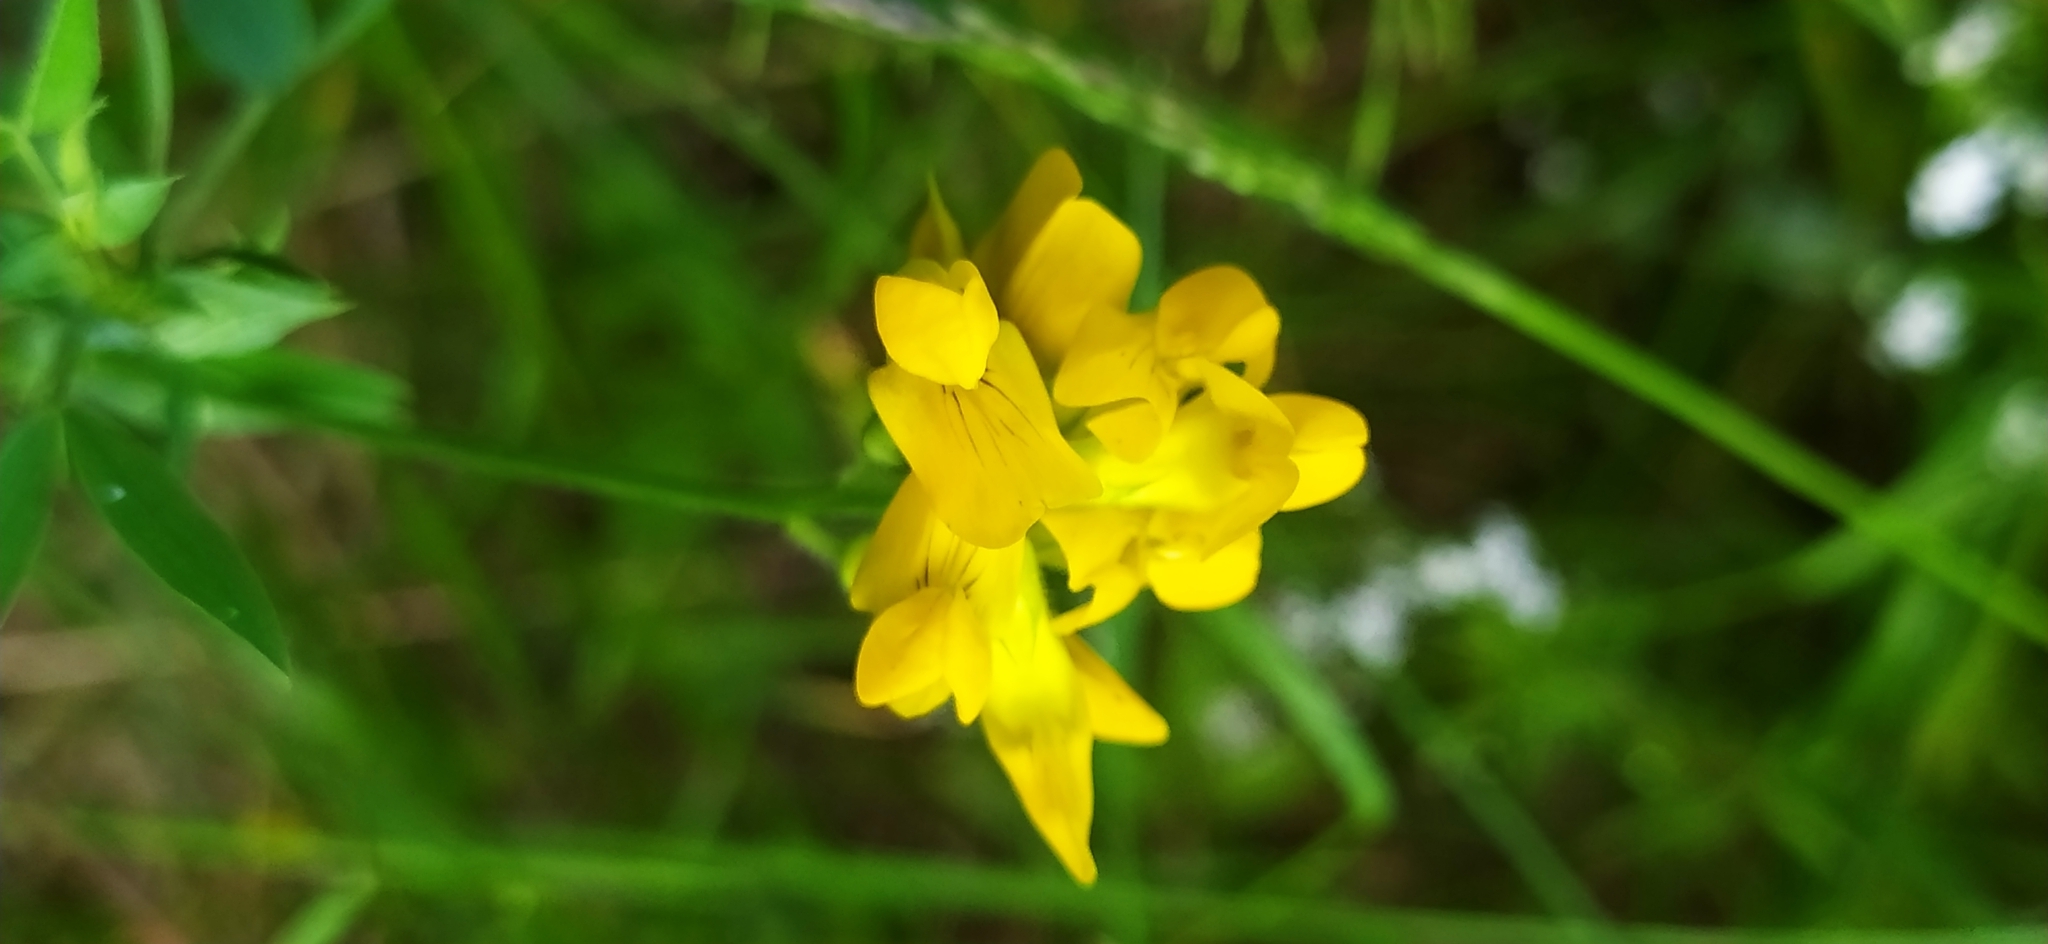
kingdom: Plantae
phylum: Tracheophyta
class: Magnoliopsida
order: Fabales
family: Fabaceae
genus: Lathyrus
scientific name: Lathyrus pratensis
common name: Meadow vetchling
